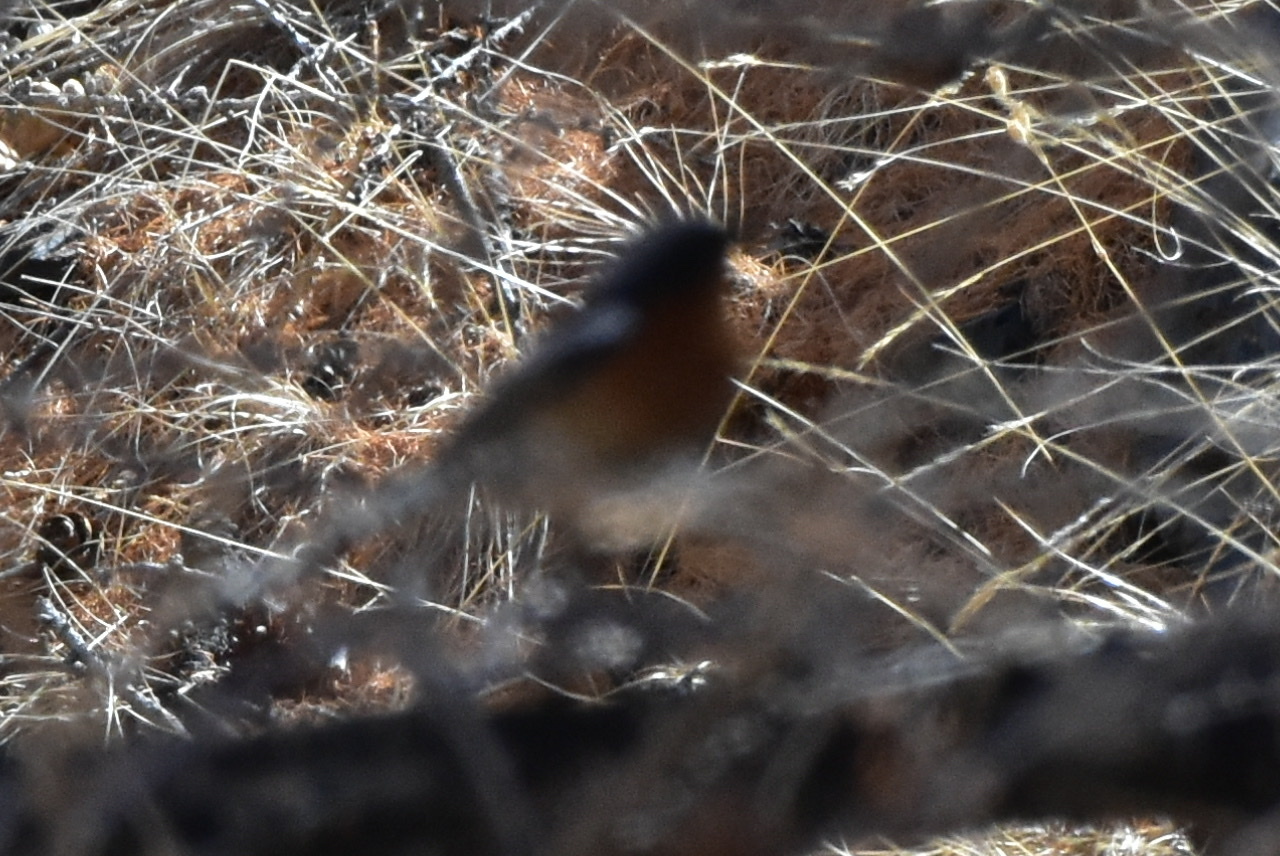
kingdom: Animalia
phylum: Chordata
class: Aves
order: Passeriformes
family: Muscicapidae
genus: Phoenicurus
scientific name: Phoenicurus erythronotus
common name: Eversmann's redstart
